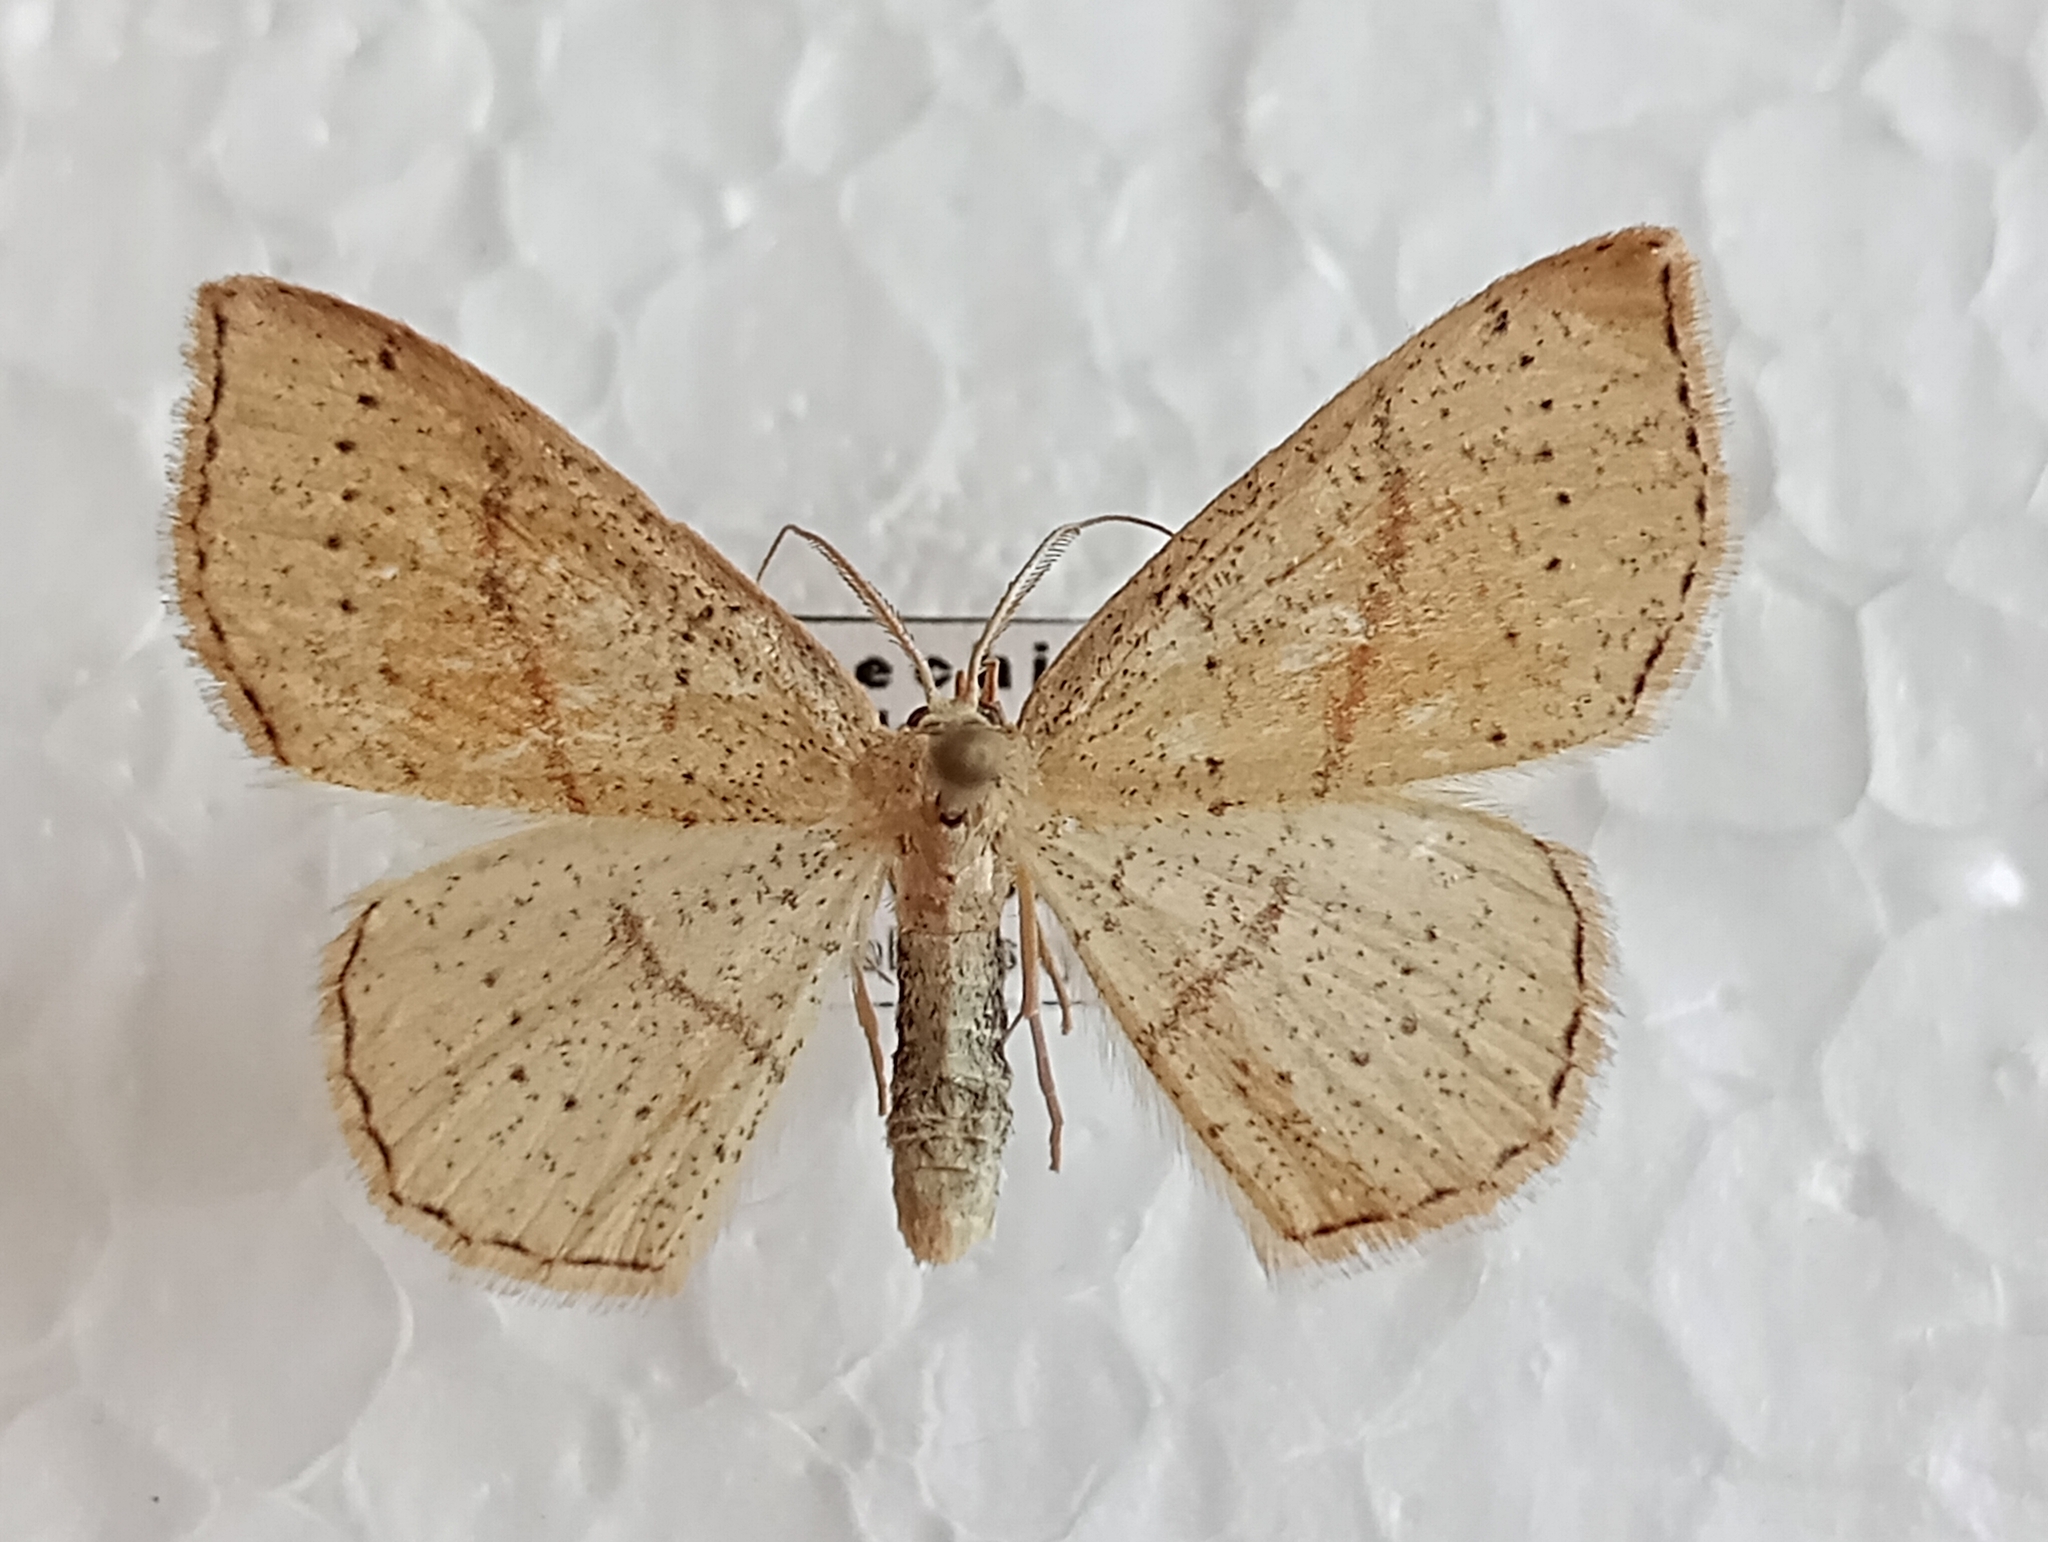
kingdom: Animalia
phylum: Arthropoda
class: Insecta
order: Lepidoptera
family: Geometridae
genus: Cyclophora
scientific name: Cyclophora punctaria
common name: Maiden's blush
